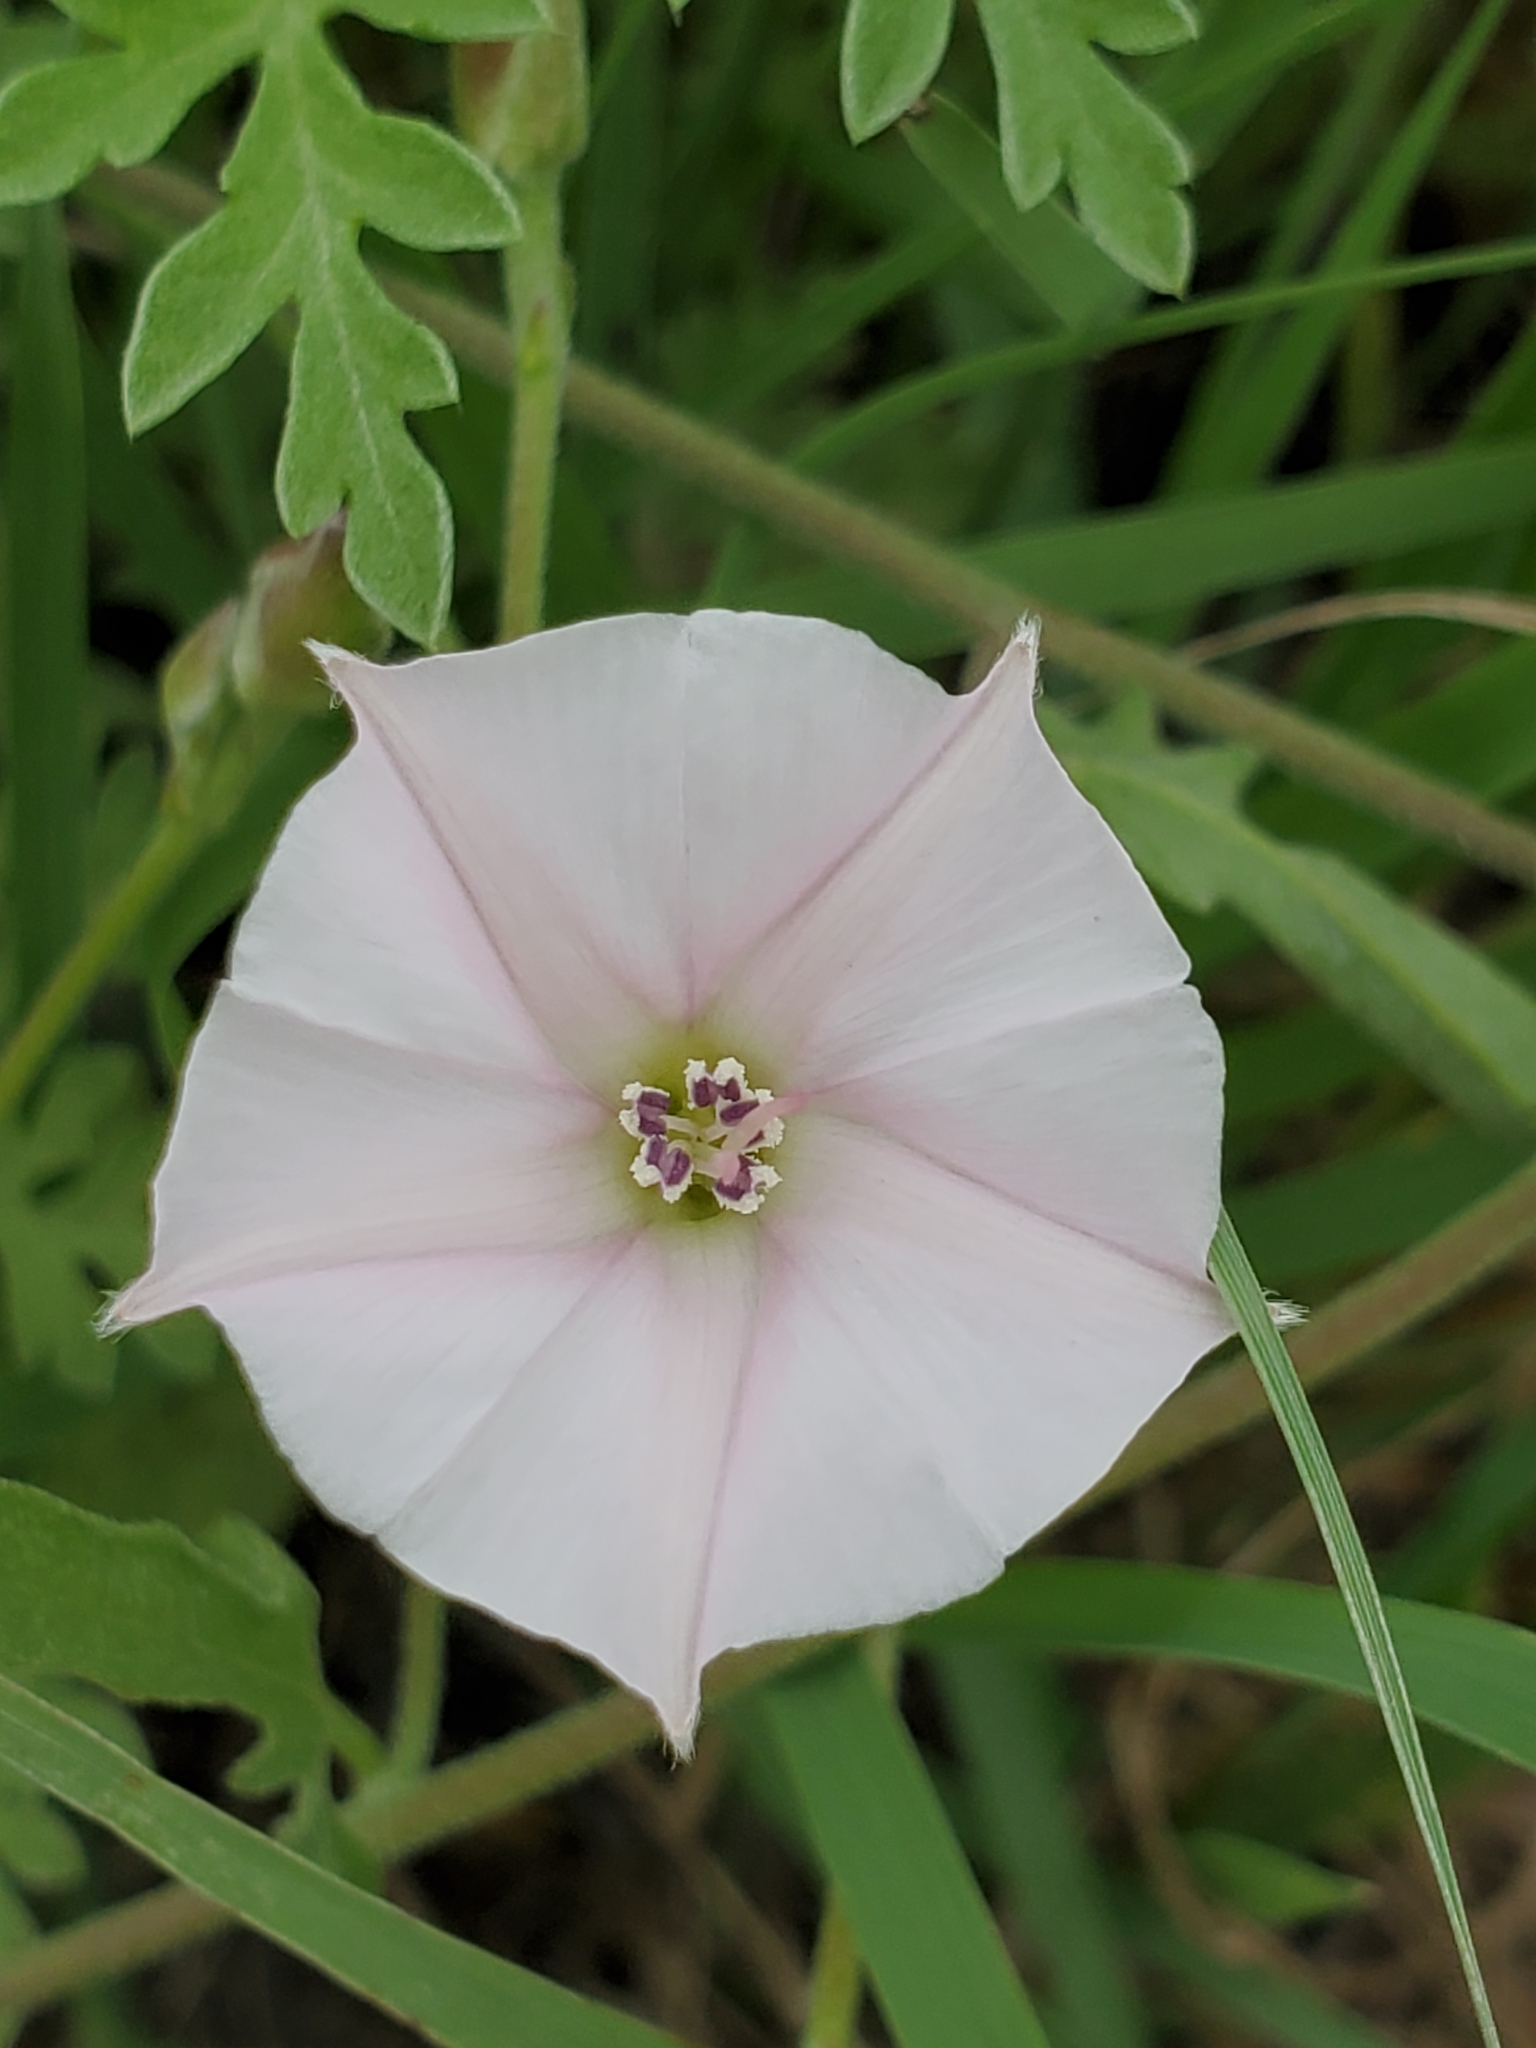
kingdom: Plantae
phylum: Tracheophyta
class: Magnoliopsida
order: Solanales
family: Convolvulaceae
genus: Convolvulus
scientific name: Convolvulus equitans
